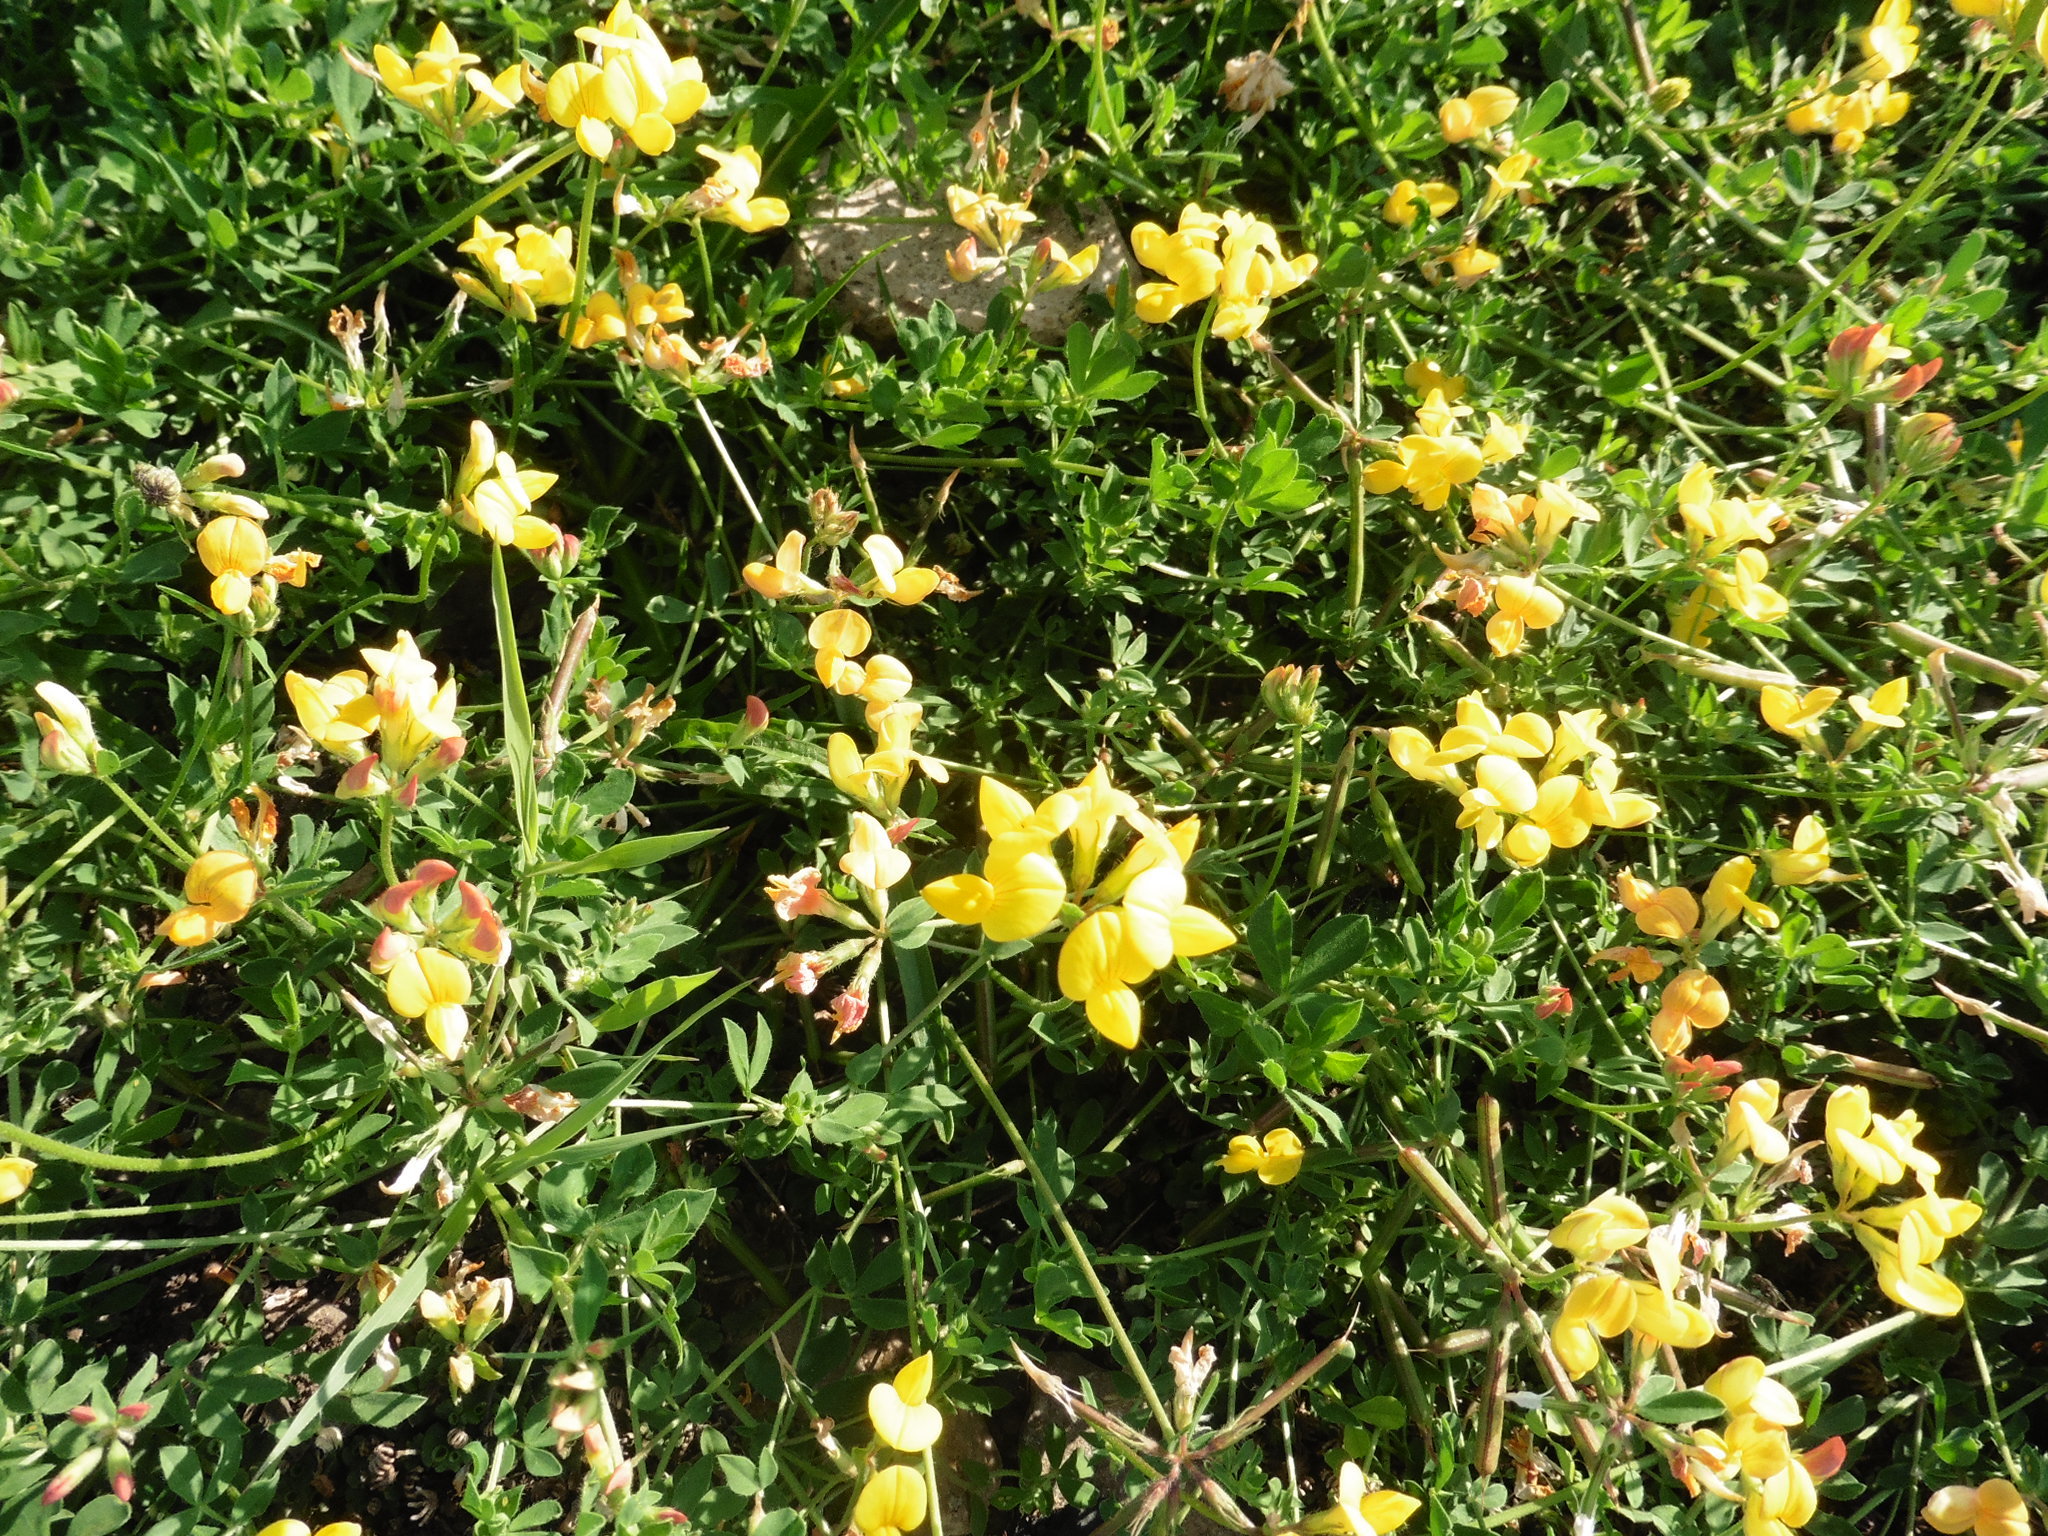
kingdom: Plantae
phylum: Tracheophyta
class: Magnoliopsida
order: Fabales
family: Fabaceae
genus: Lotus
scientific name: Lotus corniculatus
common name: Common bird's-foot-trefoil
